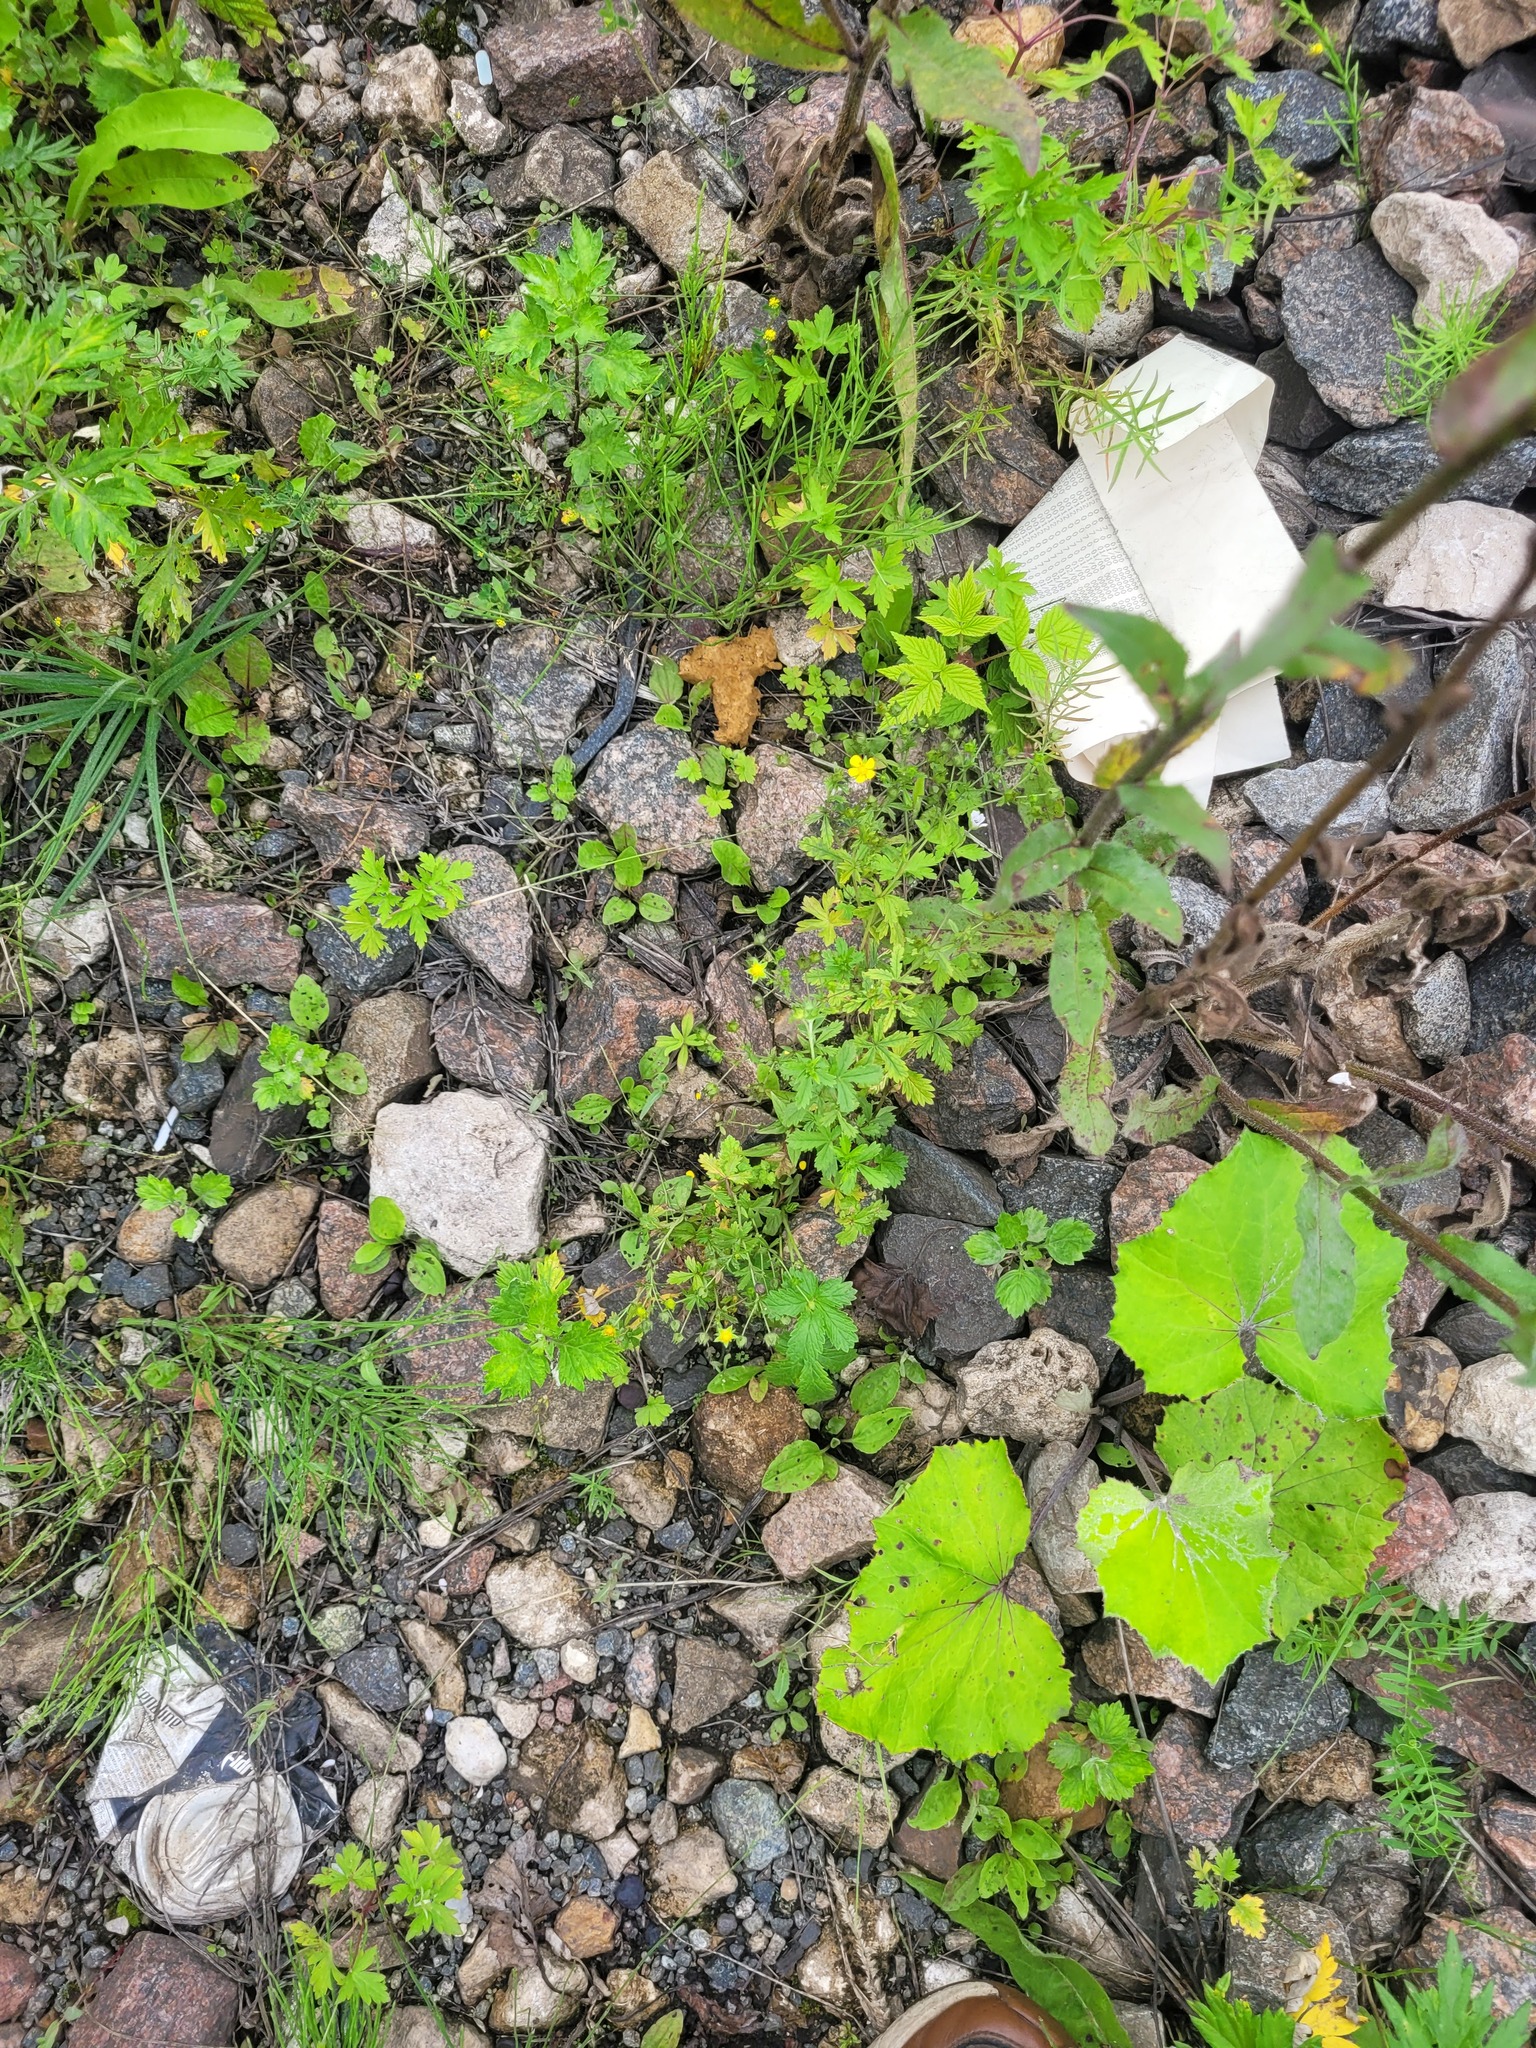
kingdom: Plantae
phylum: Tracheophyta
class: Magnoliopsida
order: Rosales
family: Rosaceae
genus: Potentilla
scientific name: Potentilla intermedia
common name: Downy cinquefoil
